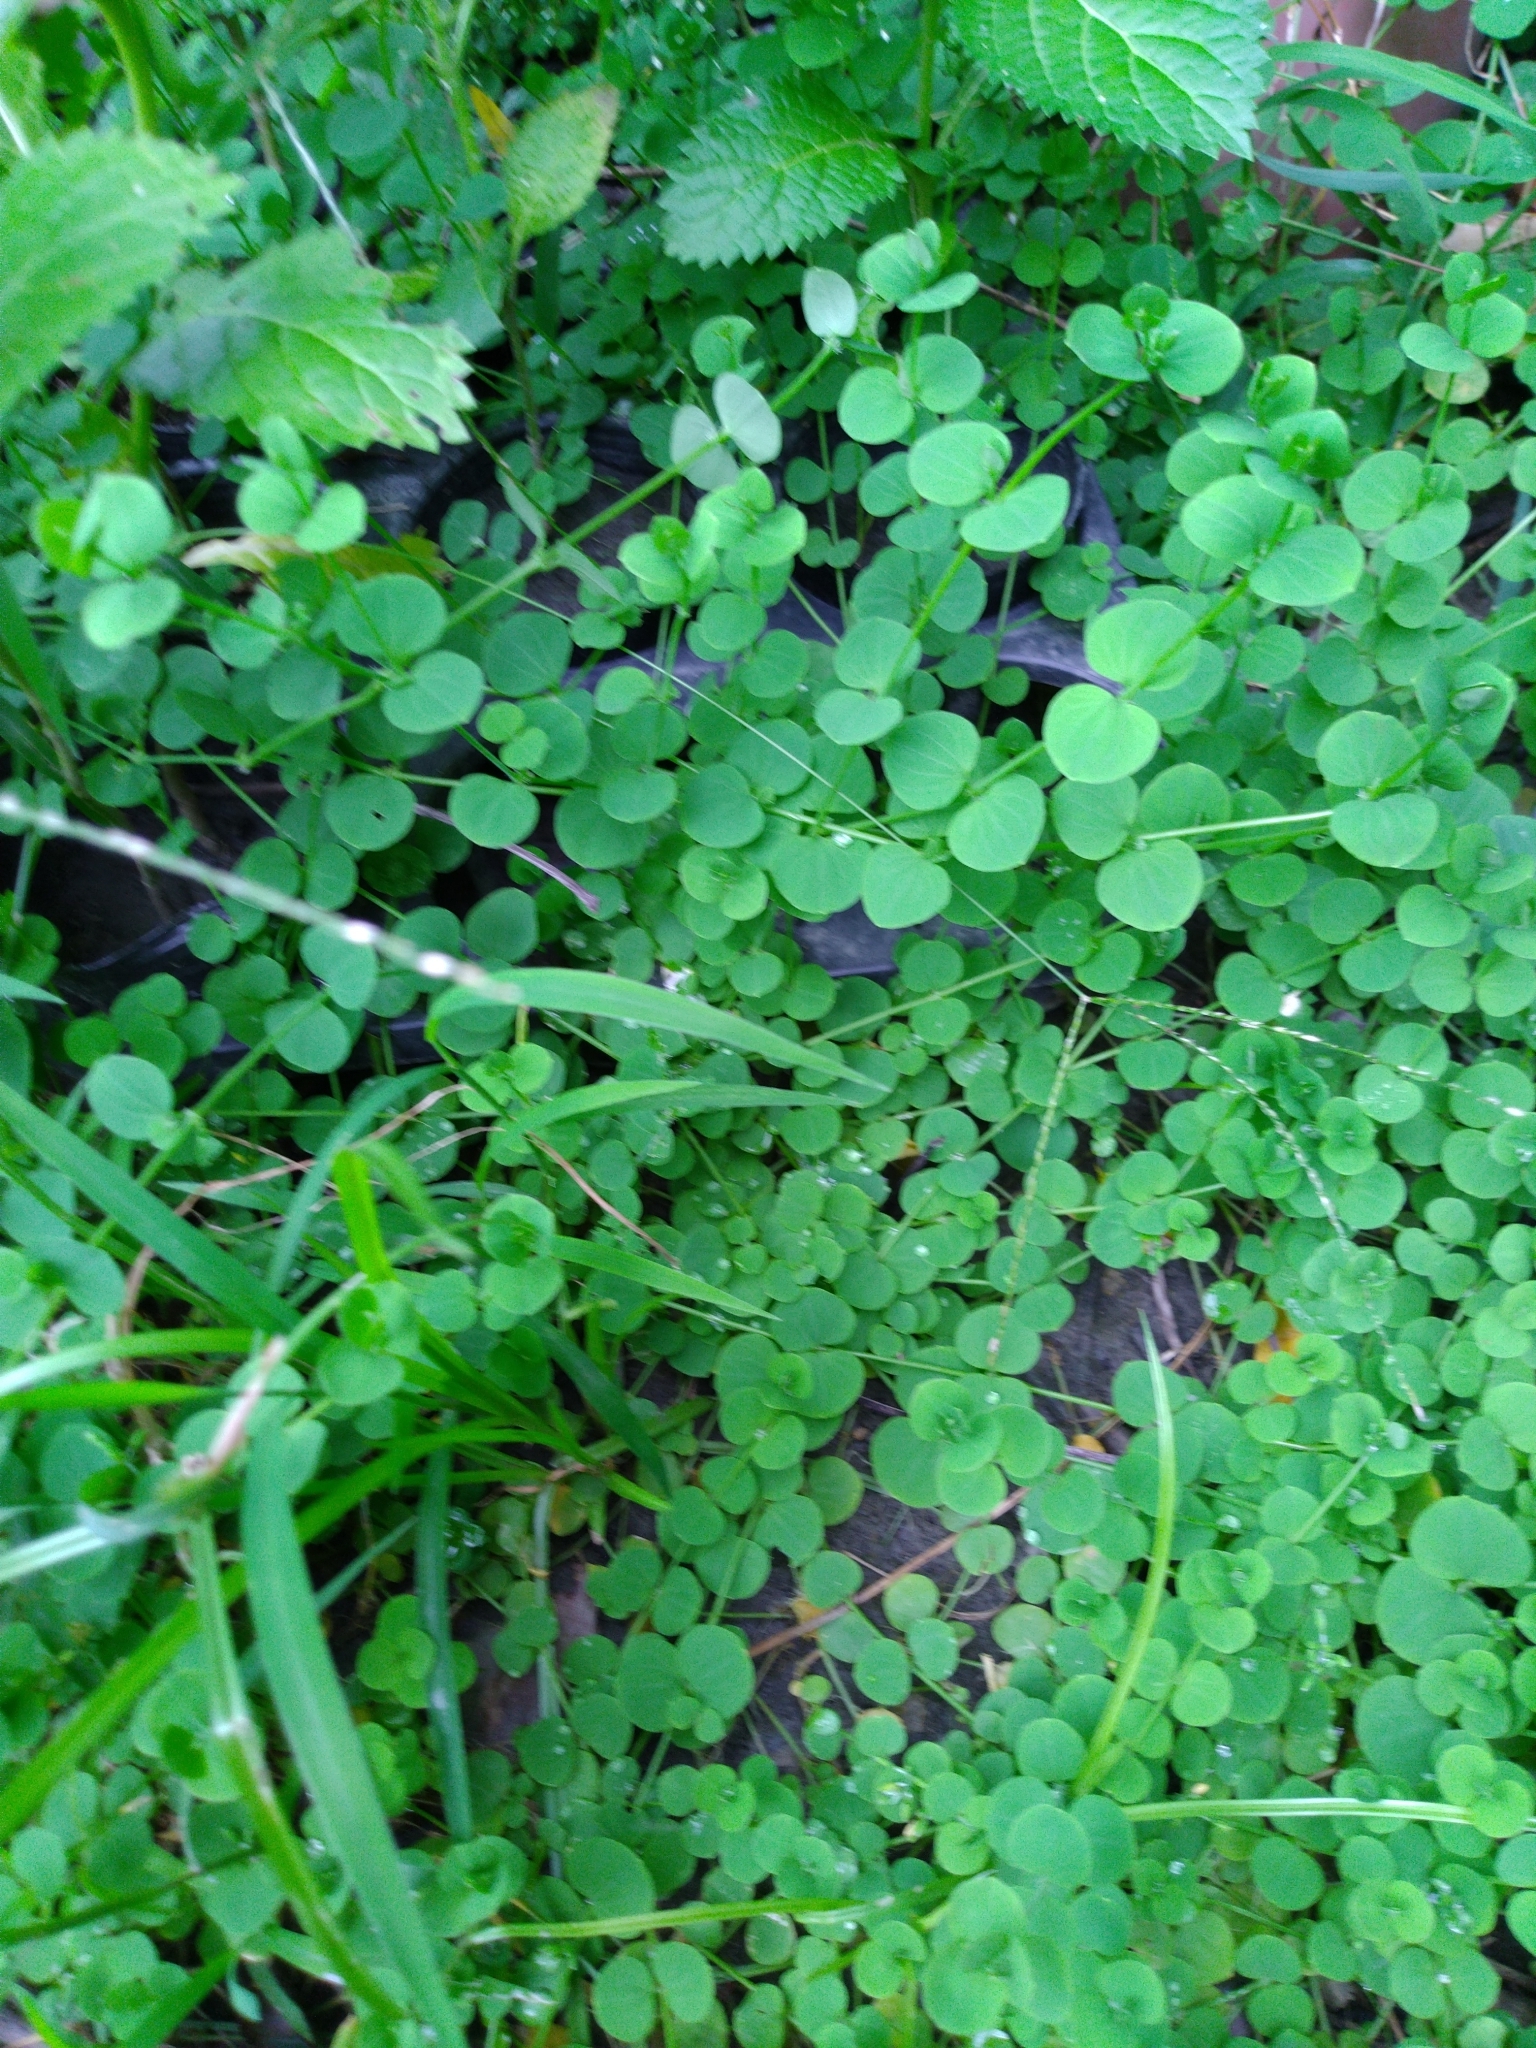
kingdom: Plantae
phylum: Tracheophyta
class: Magnoliopsida
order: Caryophyllales
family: Caryophyllaceae
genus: Drymaria
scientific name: Drymaria cordata
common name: Whitesnow
